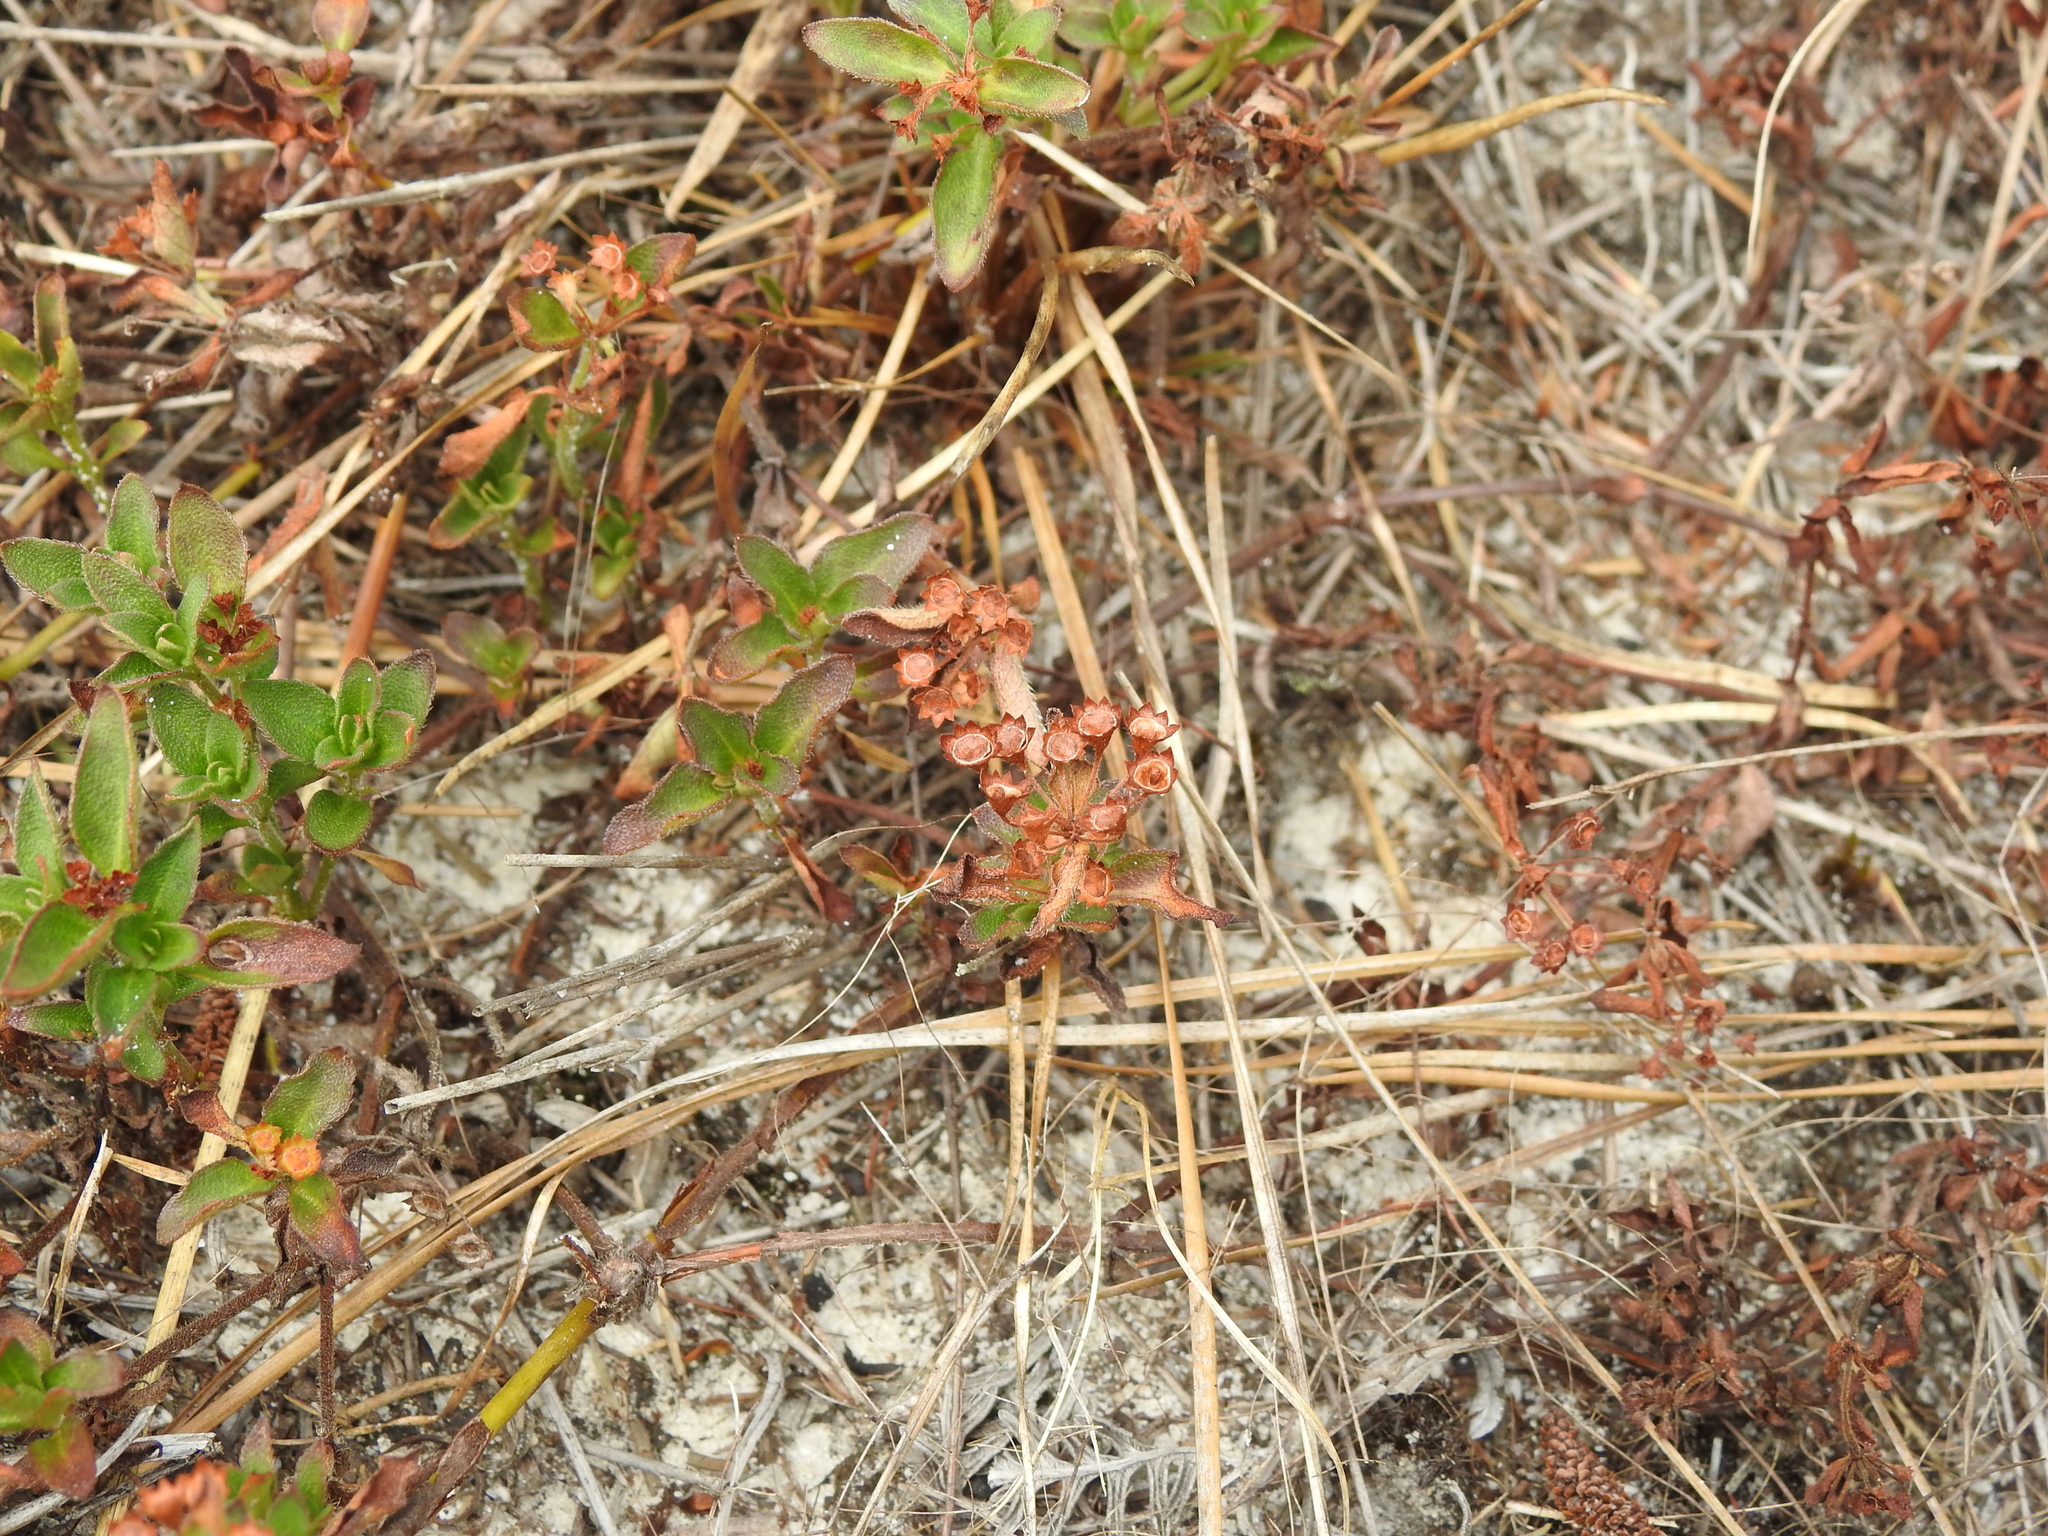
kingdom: Plantae
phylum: Tracheophyta
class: Magnoliopsida
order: Gentianales
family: Rubiaceae
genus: Pomax
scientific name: Pomax umbellata
